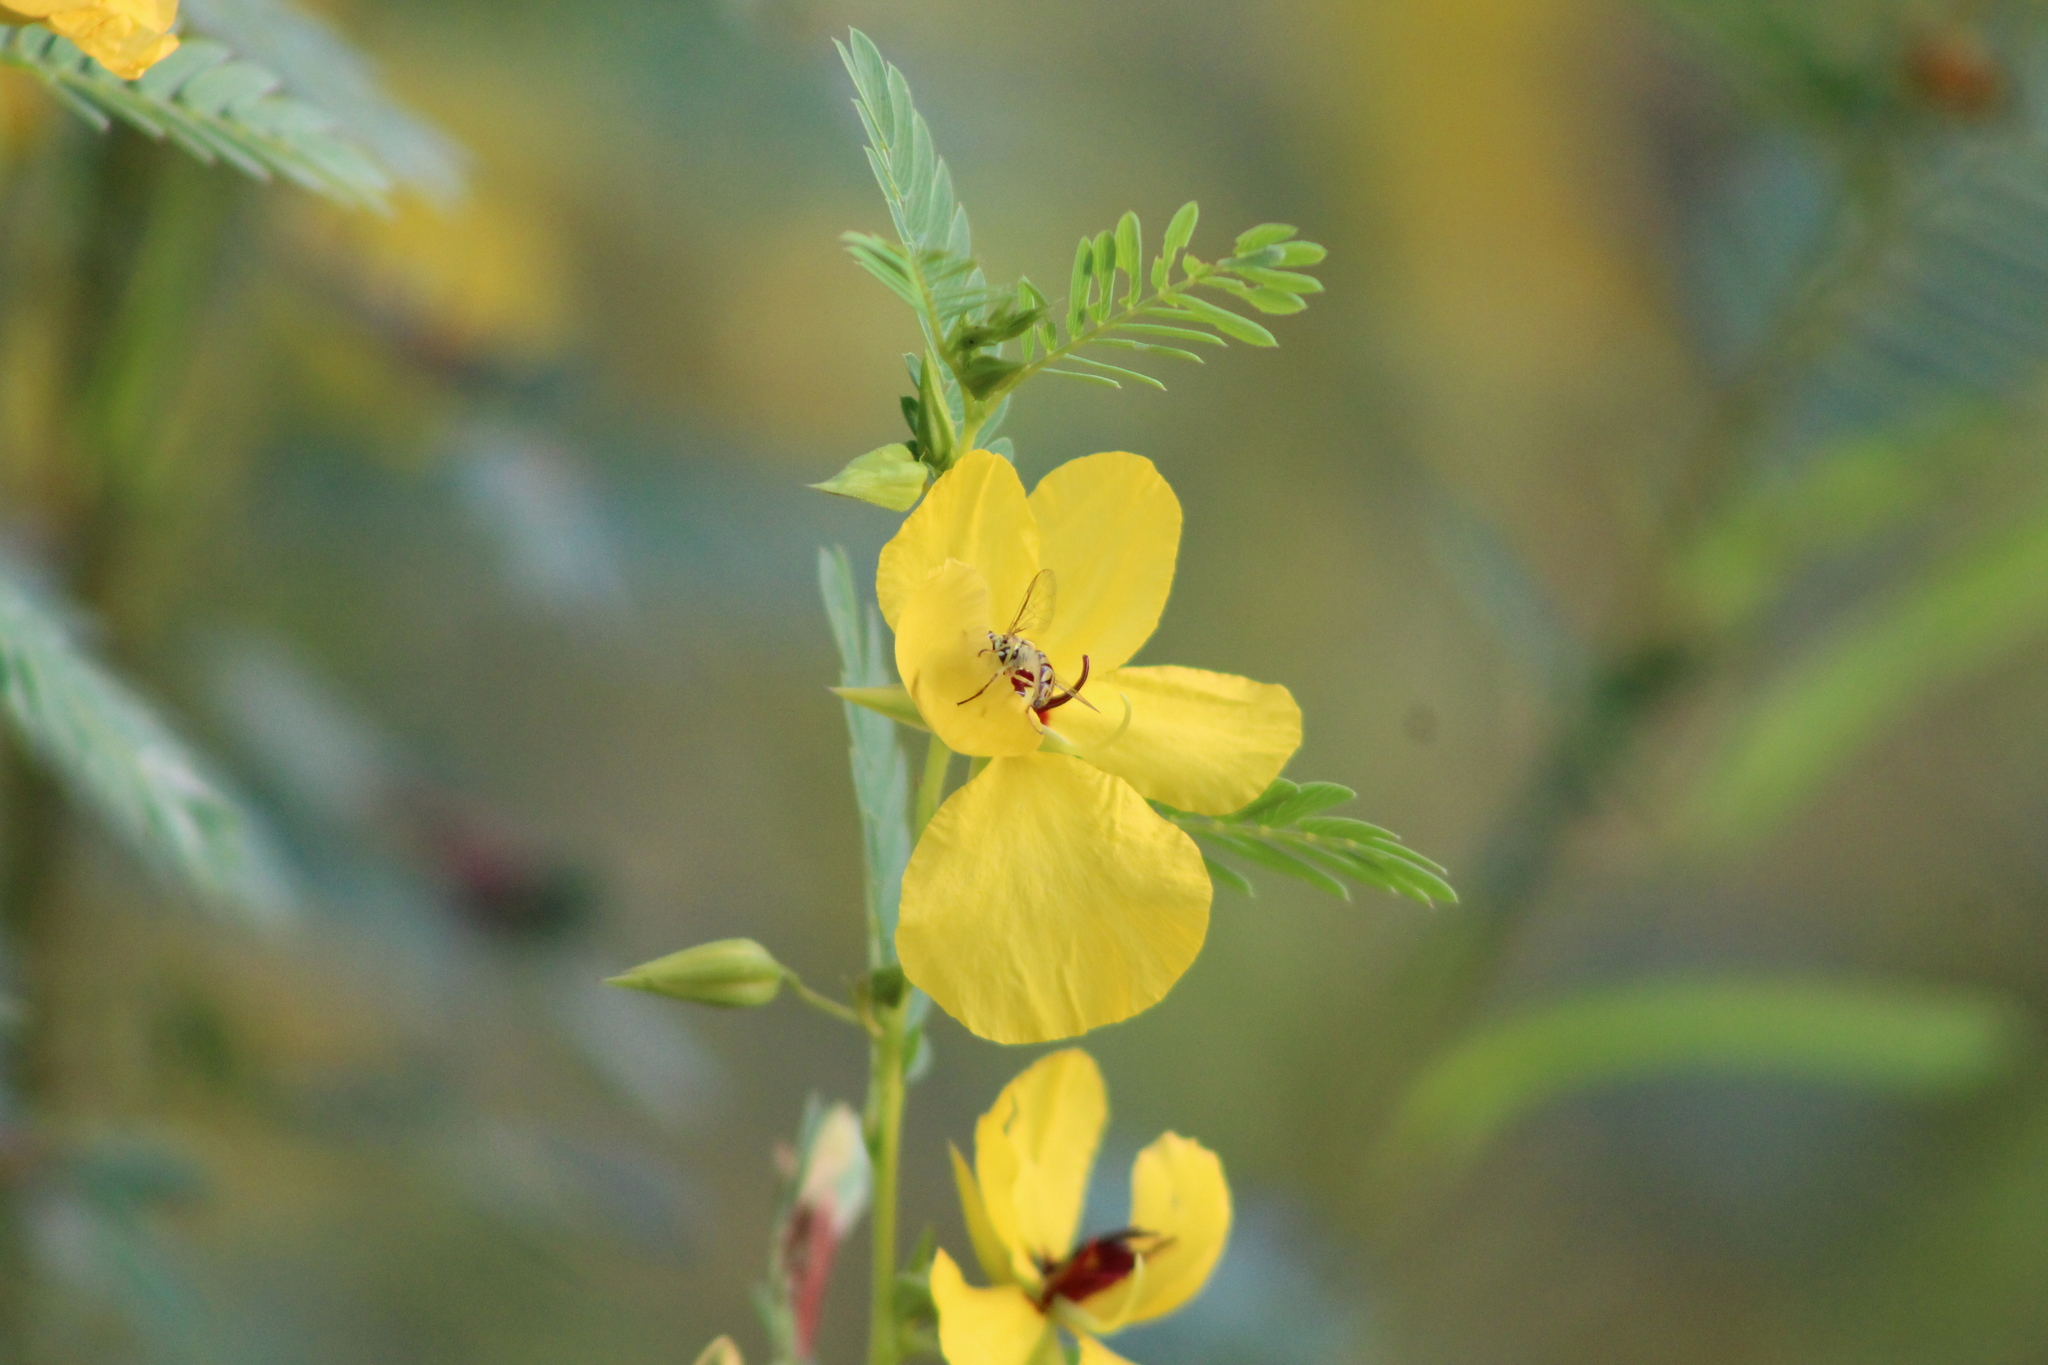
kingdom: Animalia
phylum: Arthropoda
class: Insecta
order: Hymenoptera
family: Apidae
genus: Apis
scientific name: Apis mellifera
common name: Honey bee
